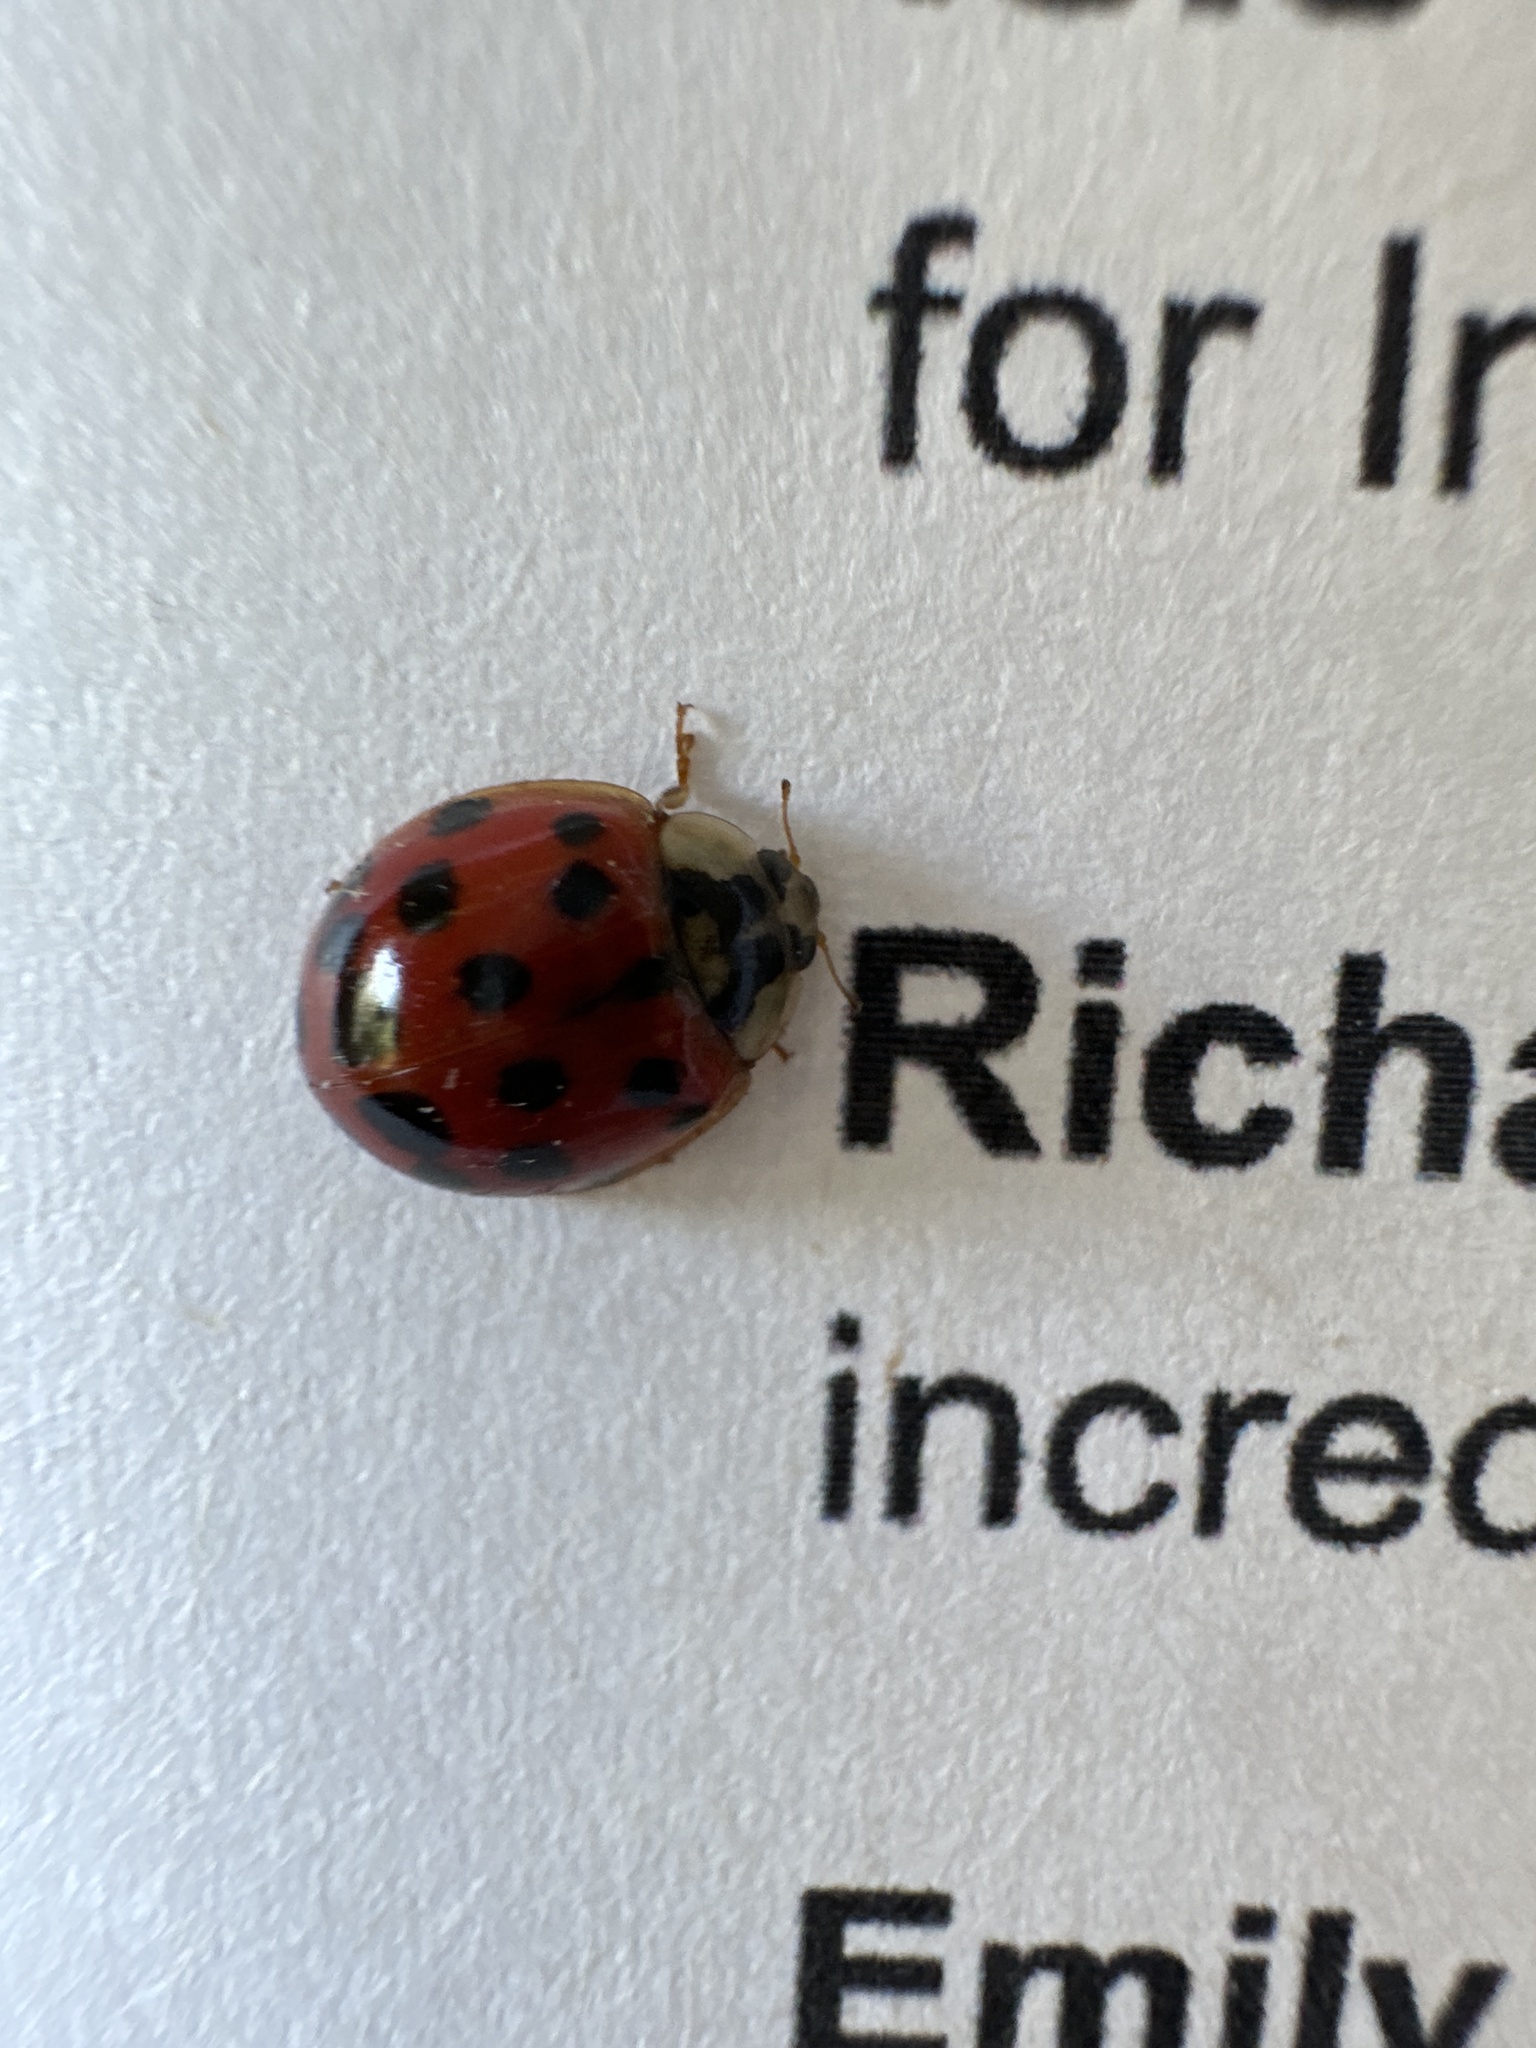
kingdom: Animalia
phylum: Arthropoda
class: Insecta
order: Coleoptera
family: Coccinellidae
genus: Harmonia
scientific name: Harmonia axyridis
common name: Harlequin ladybird
